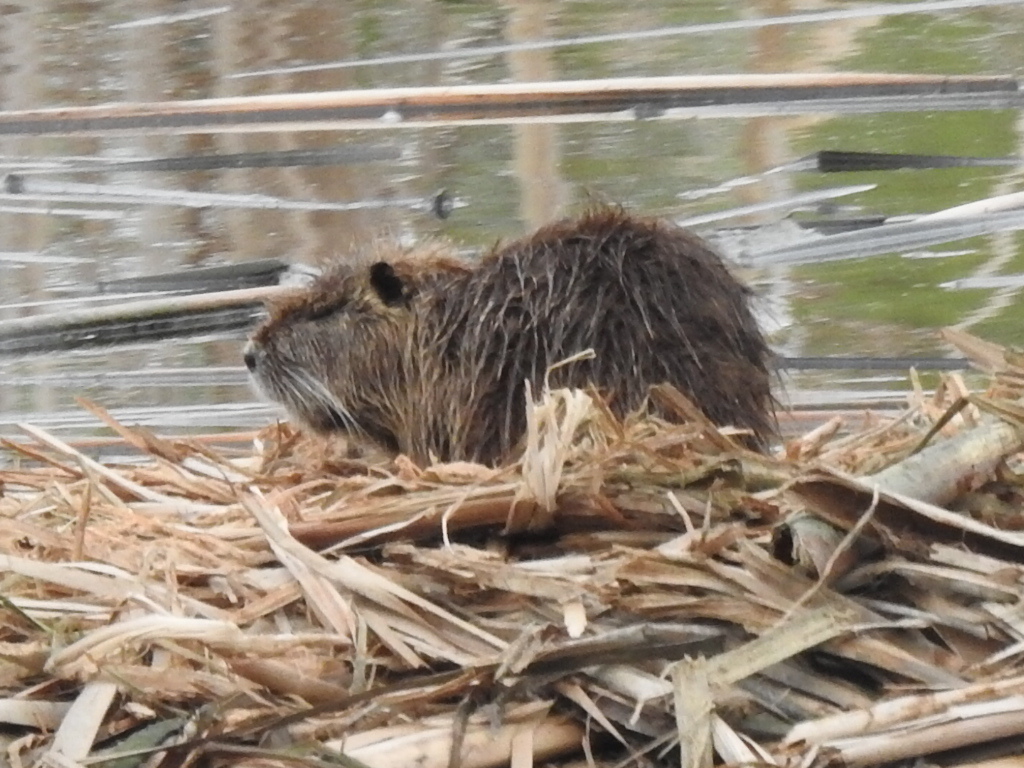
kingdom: Animalia
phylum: Chordata
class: Mammalia
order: Rodentia
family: Myocastoridae
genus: Myocastor
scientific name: Myocastor coypus
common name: Coypu
